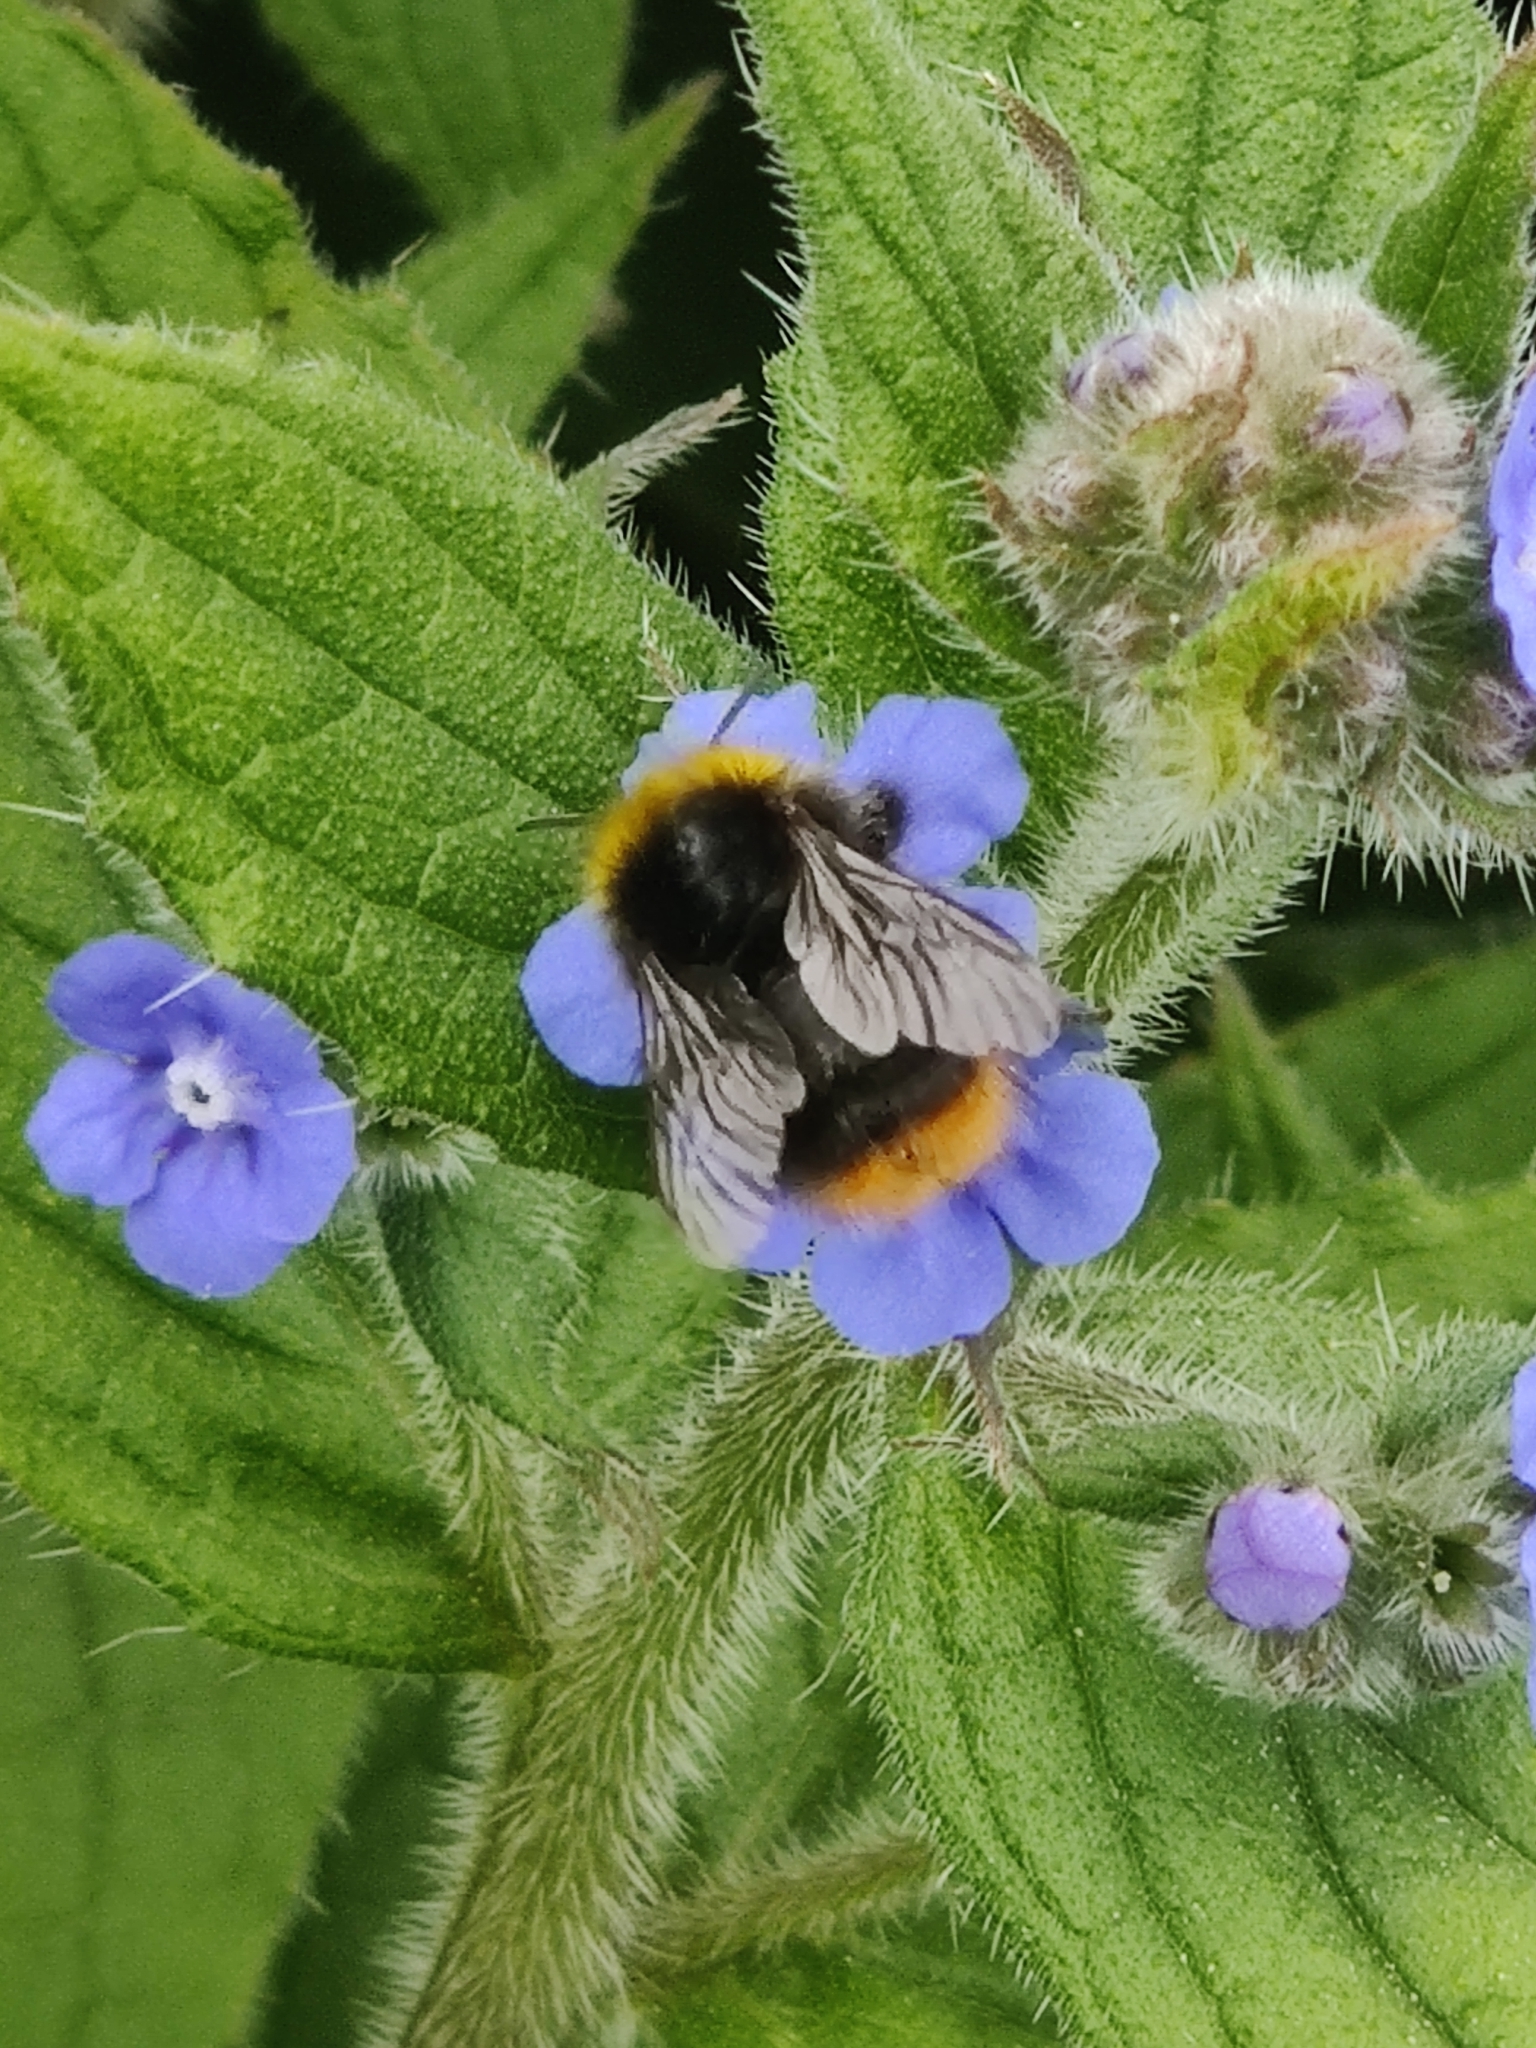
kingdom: Animalia
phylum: Arthropoda
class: Insecta
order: Hymenoptera
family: Apidae
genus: Bombus
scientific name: Bombus pratorum
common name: Early humble-bee
